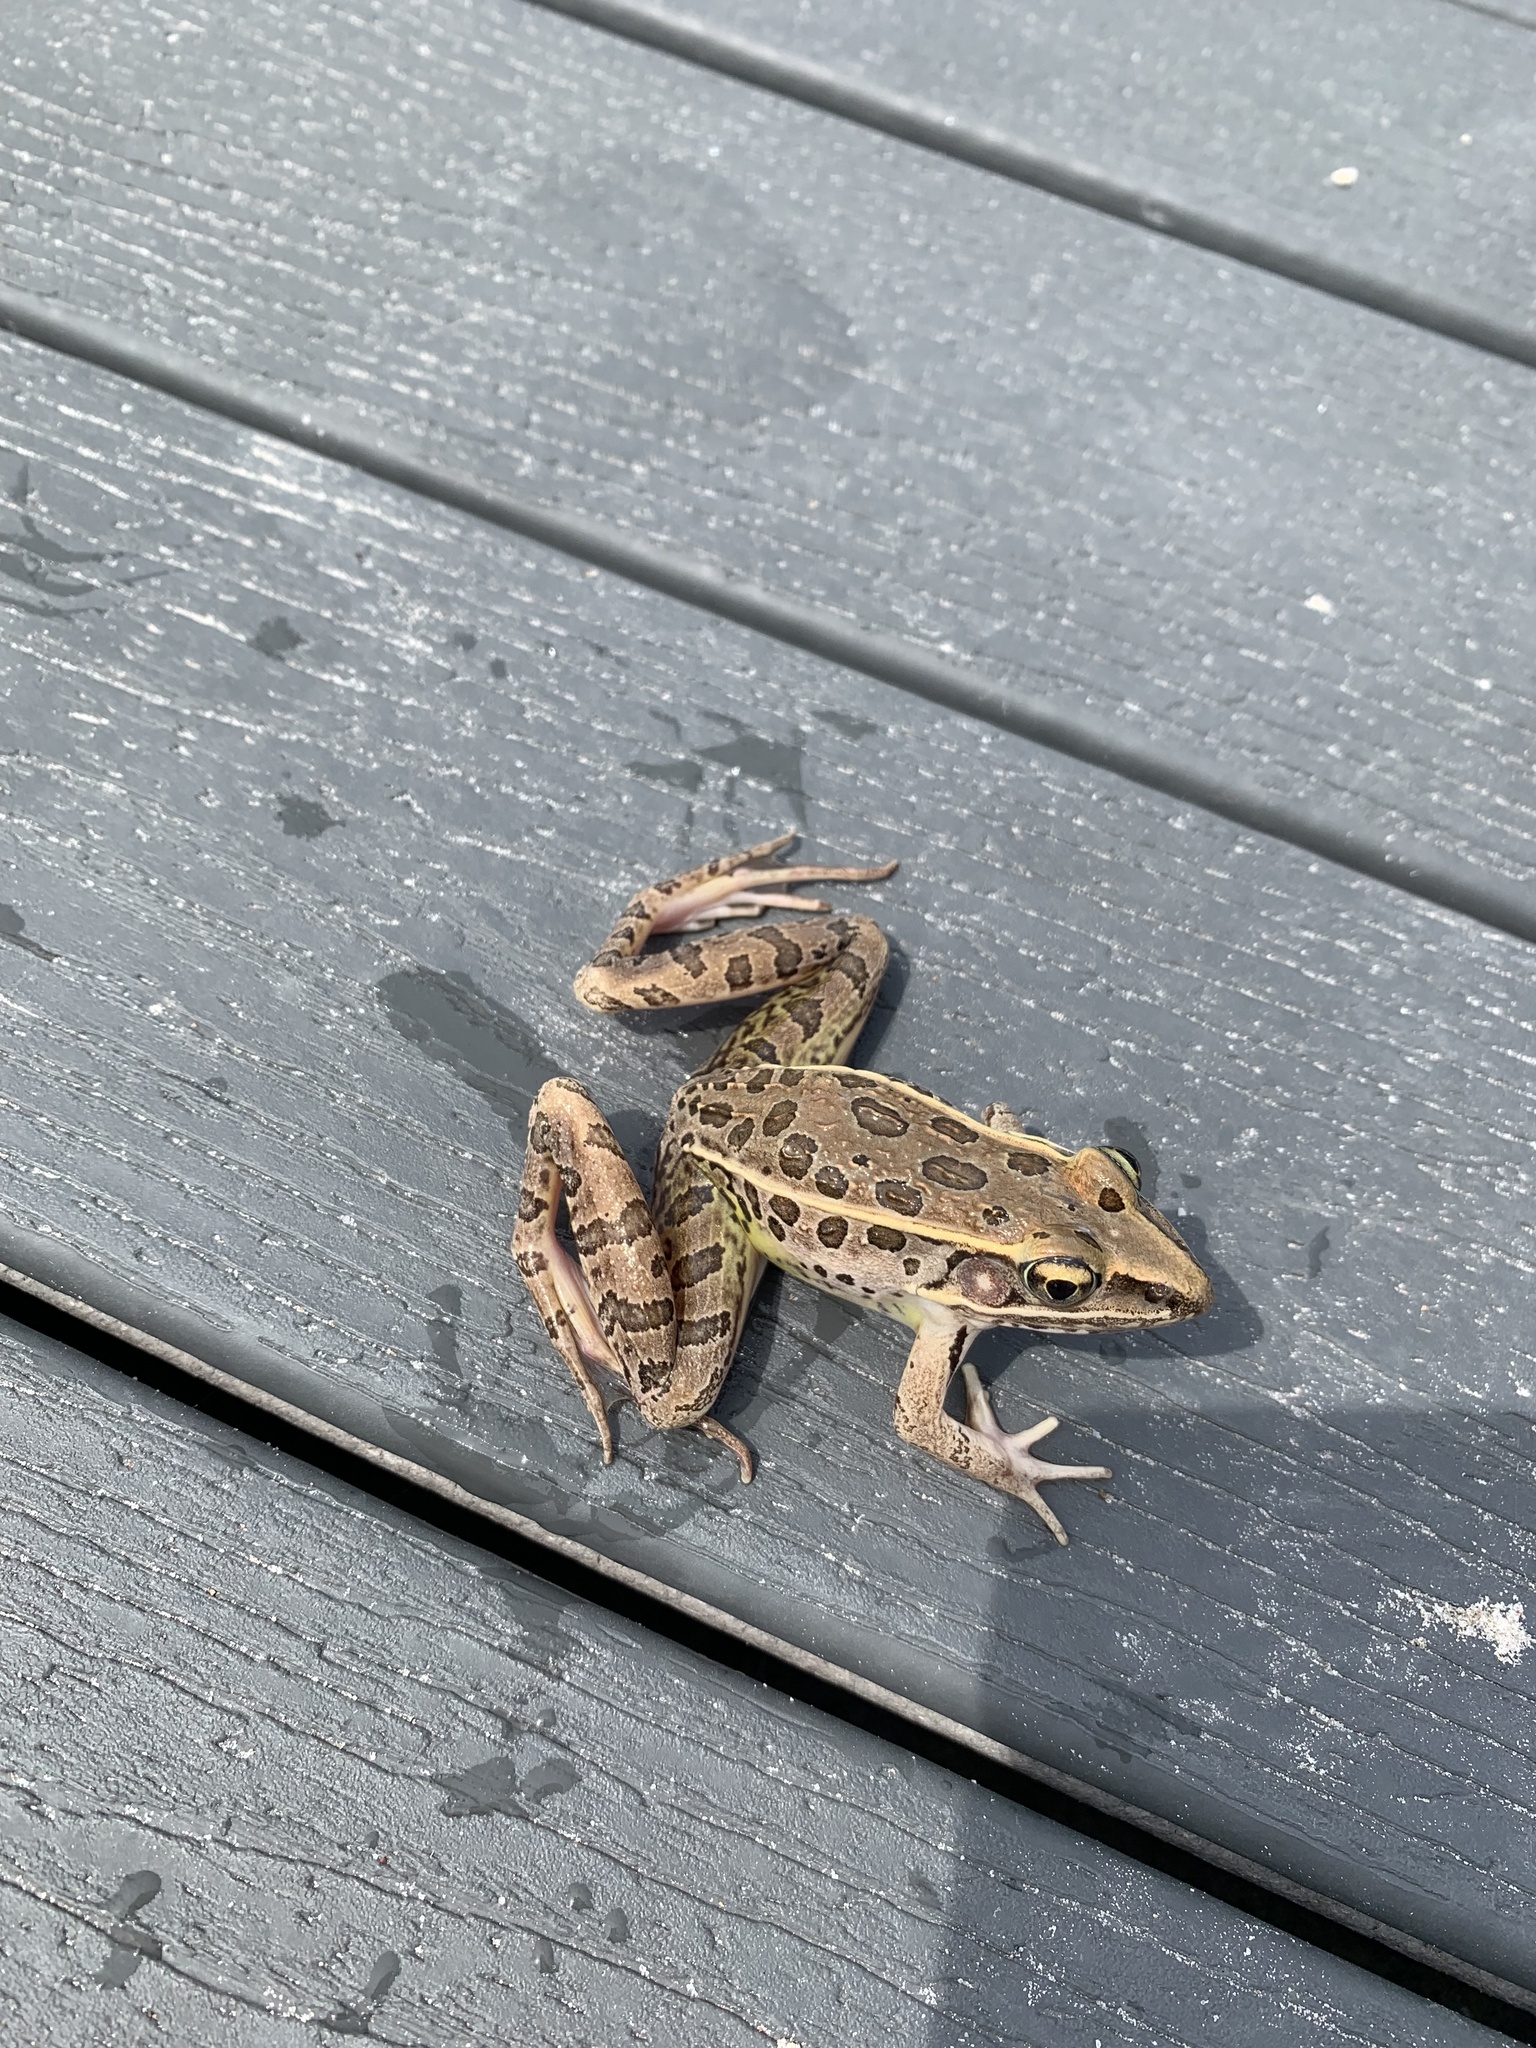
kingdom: Animalia
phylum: Chordata
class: Amphibia
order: Anura
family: Ranidae
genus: Lithobates
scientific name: Lithobates sphenocephalus
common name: Southern leopard frog
